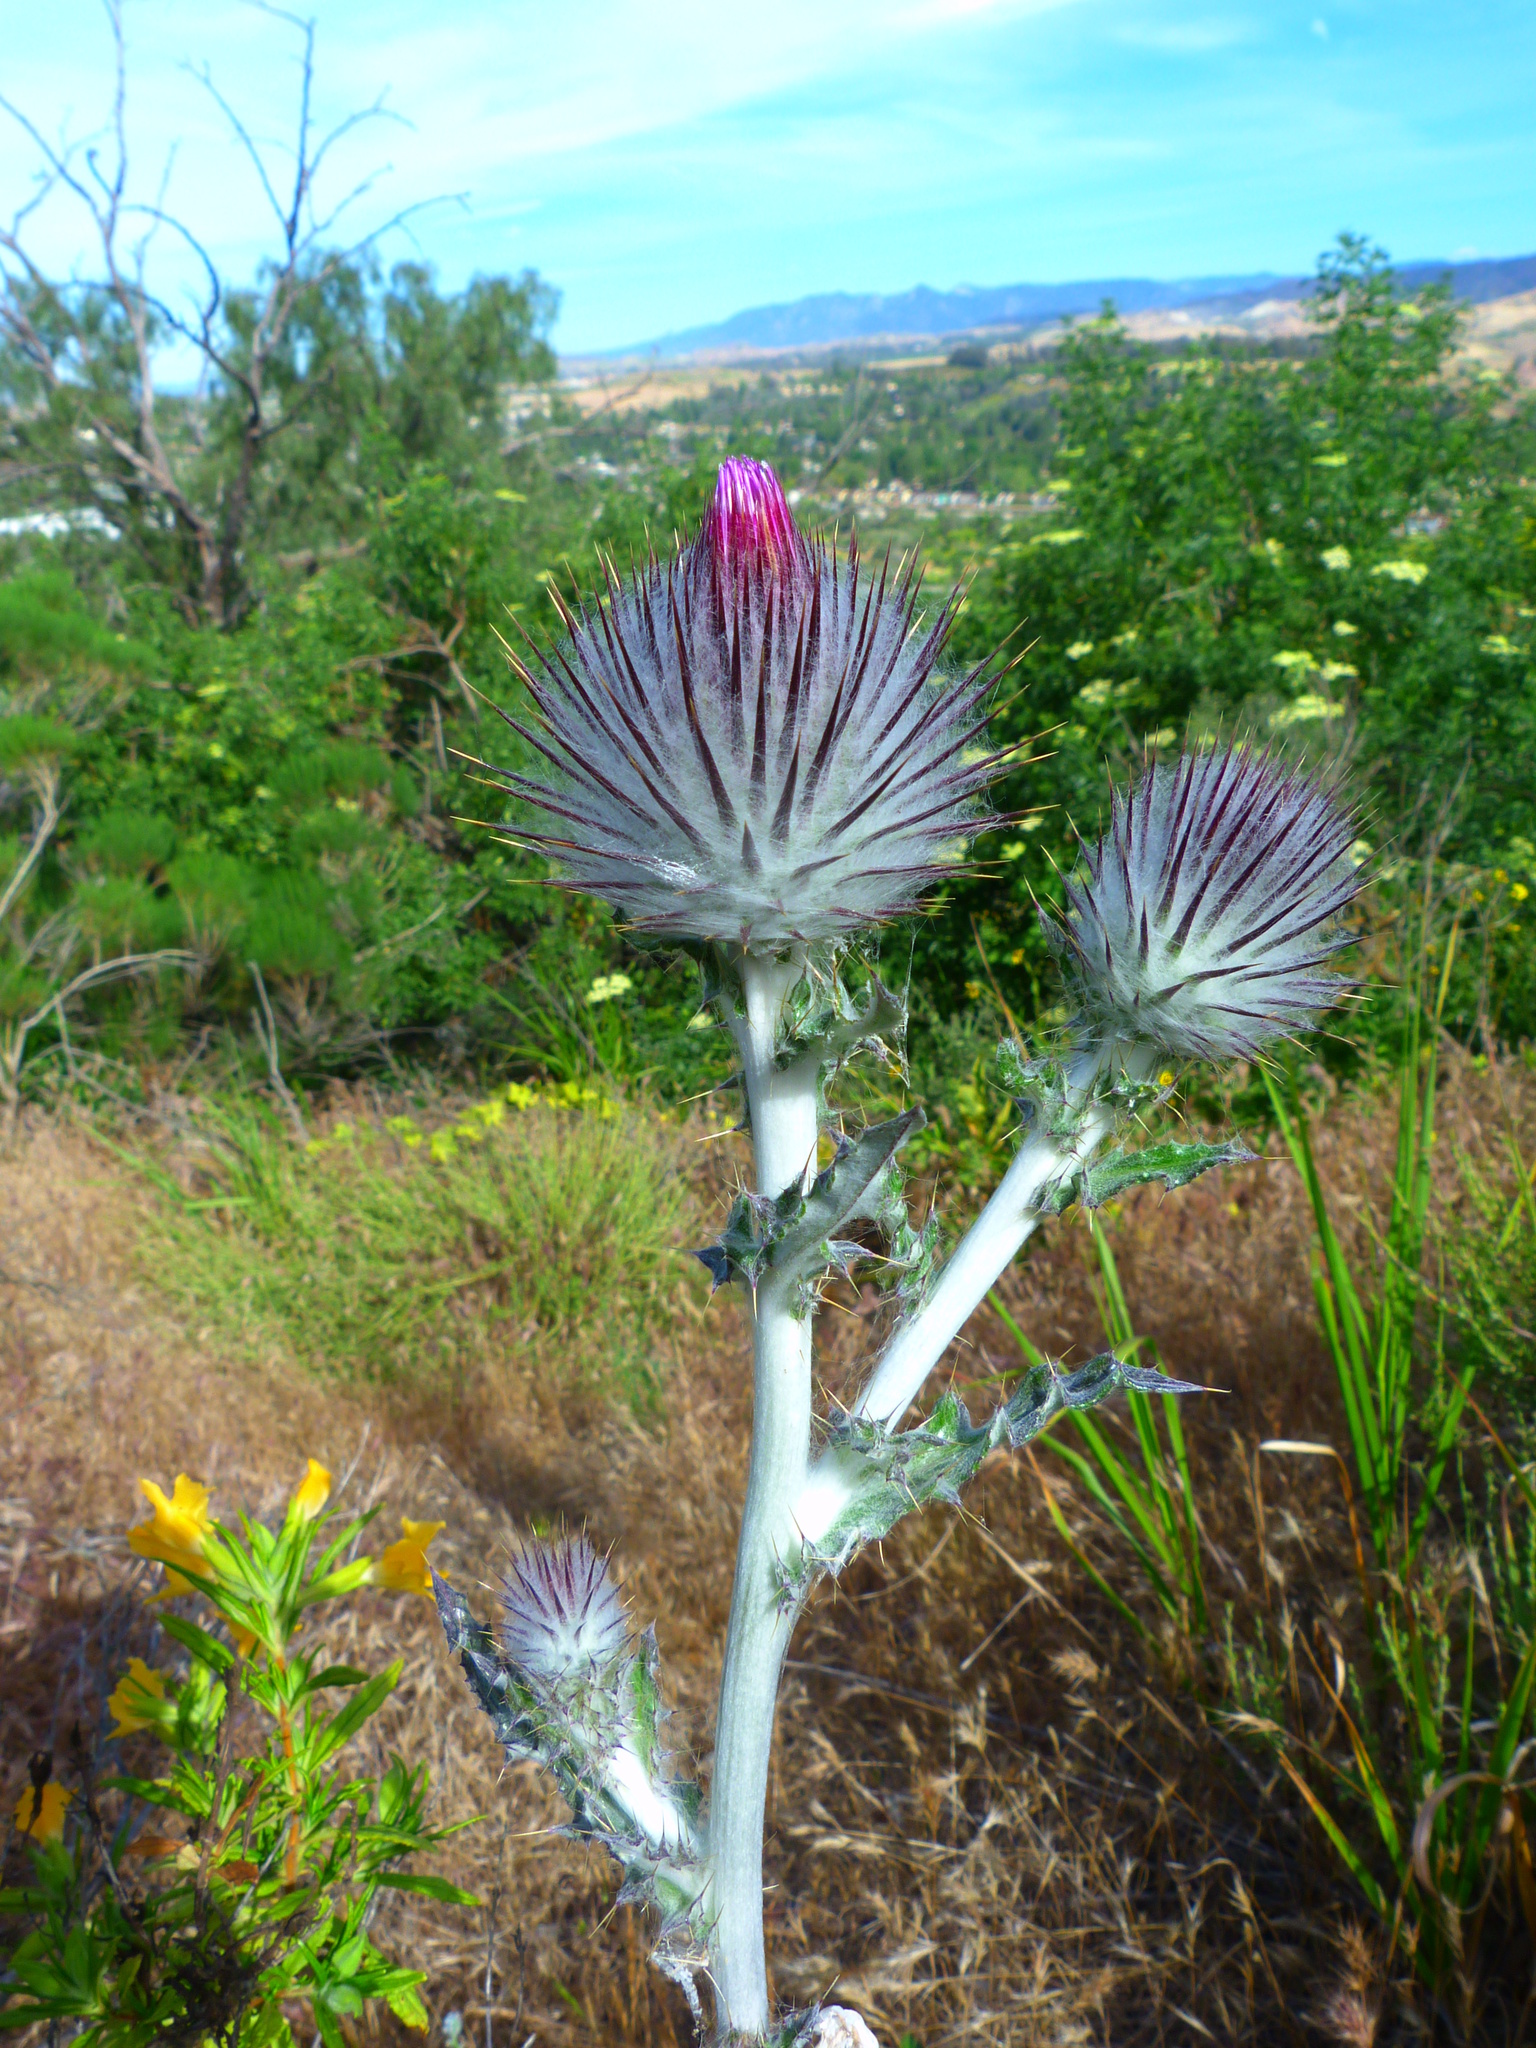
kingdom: Plantae
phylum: Tracheophyta
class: Magnoliopsida
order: Asterales
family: Asteraceae
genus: Cirsium
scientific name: Cirsium occidentale
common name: Western thistle
